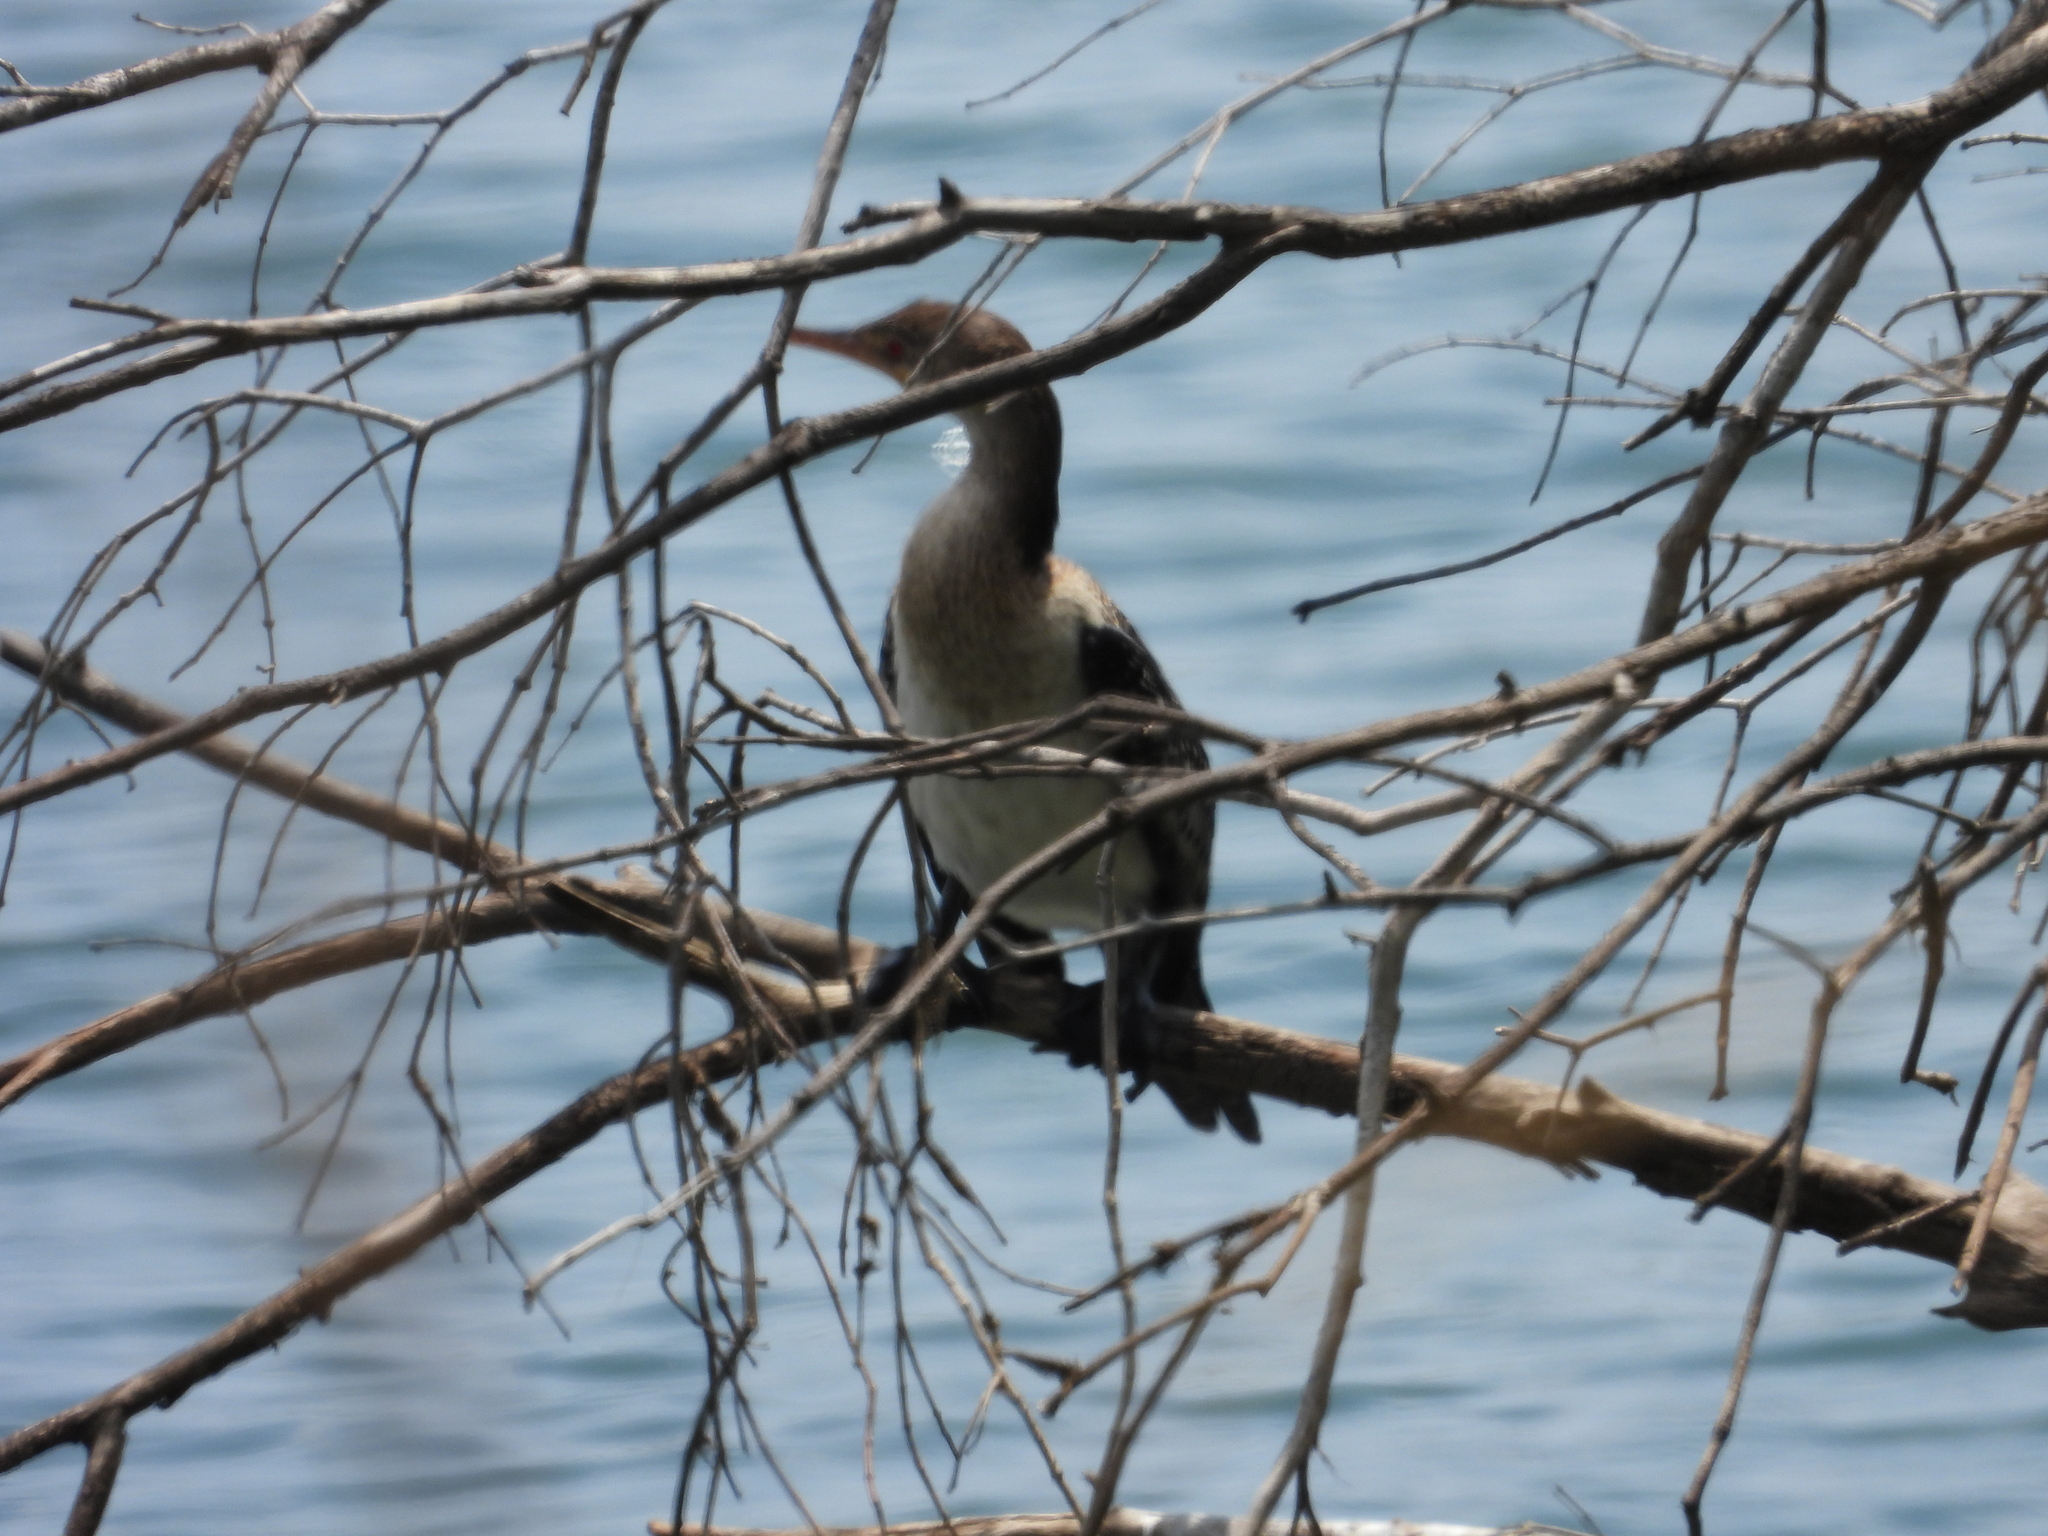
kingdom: Animalia
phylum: Chordata
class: Aves
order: Suliformes
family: Phalacrocoracidae
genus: Microcarbo
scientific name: Microcarbo africanus
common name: Long-tailed cormorant
